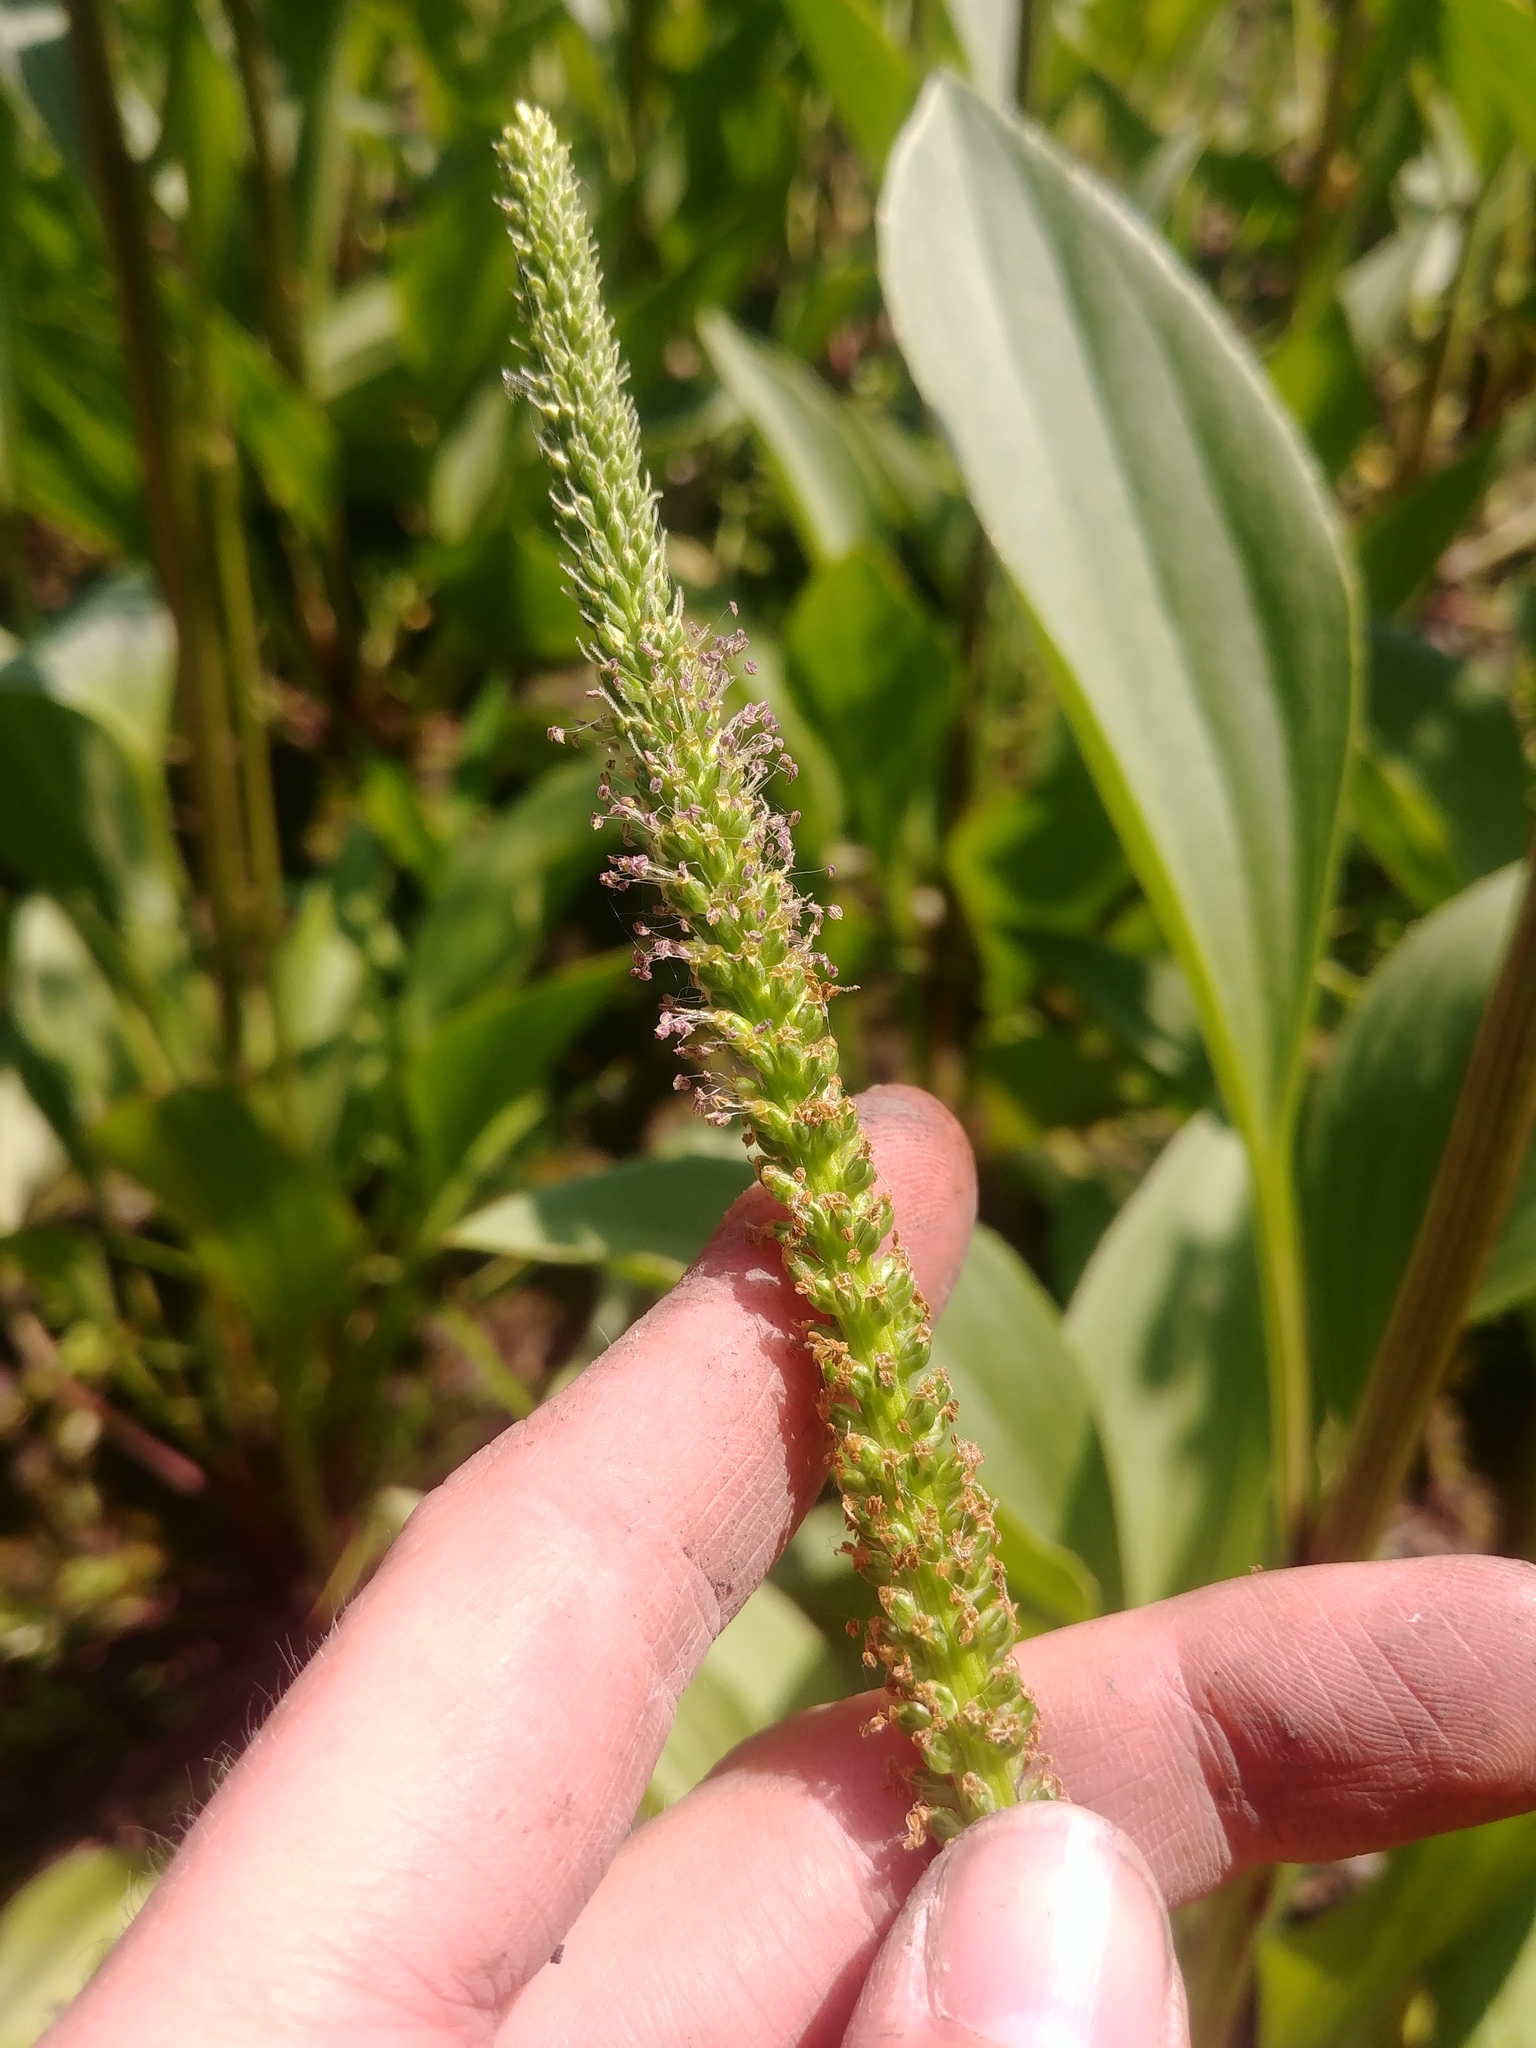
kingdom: Plantae
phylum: Tracheophyta
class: Magnoliopsida
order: Lamiales
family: Plantaginaceae
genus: Plantago
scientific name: Plantago rugelii
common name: American plantain
